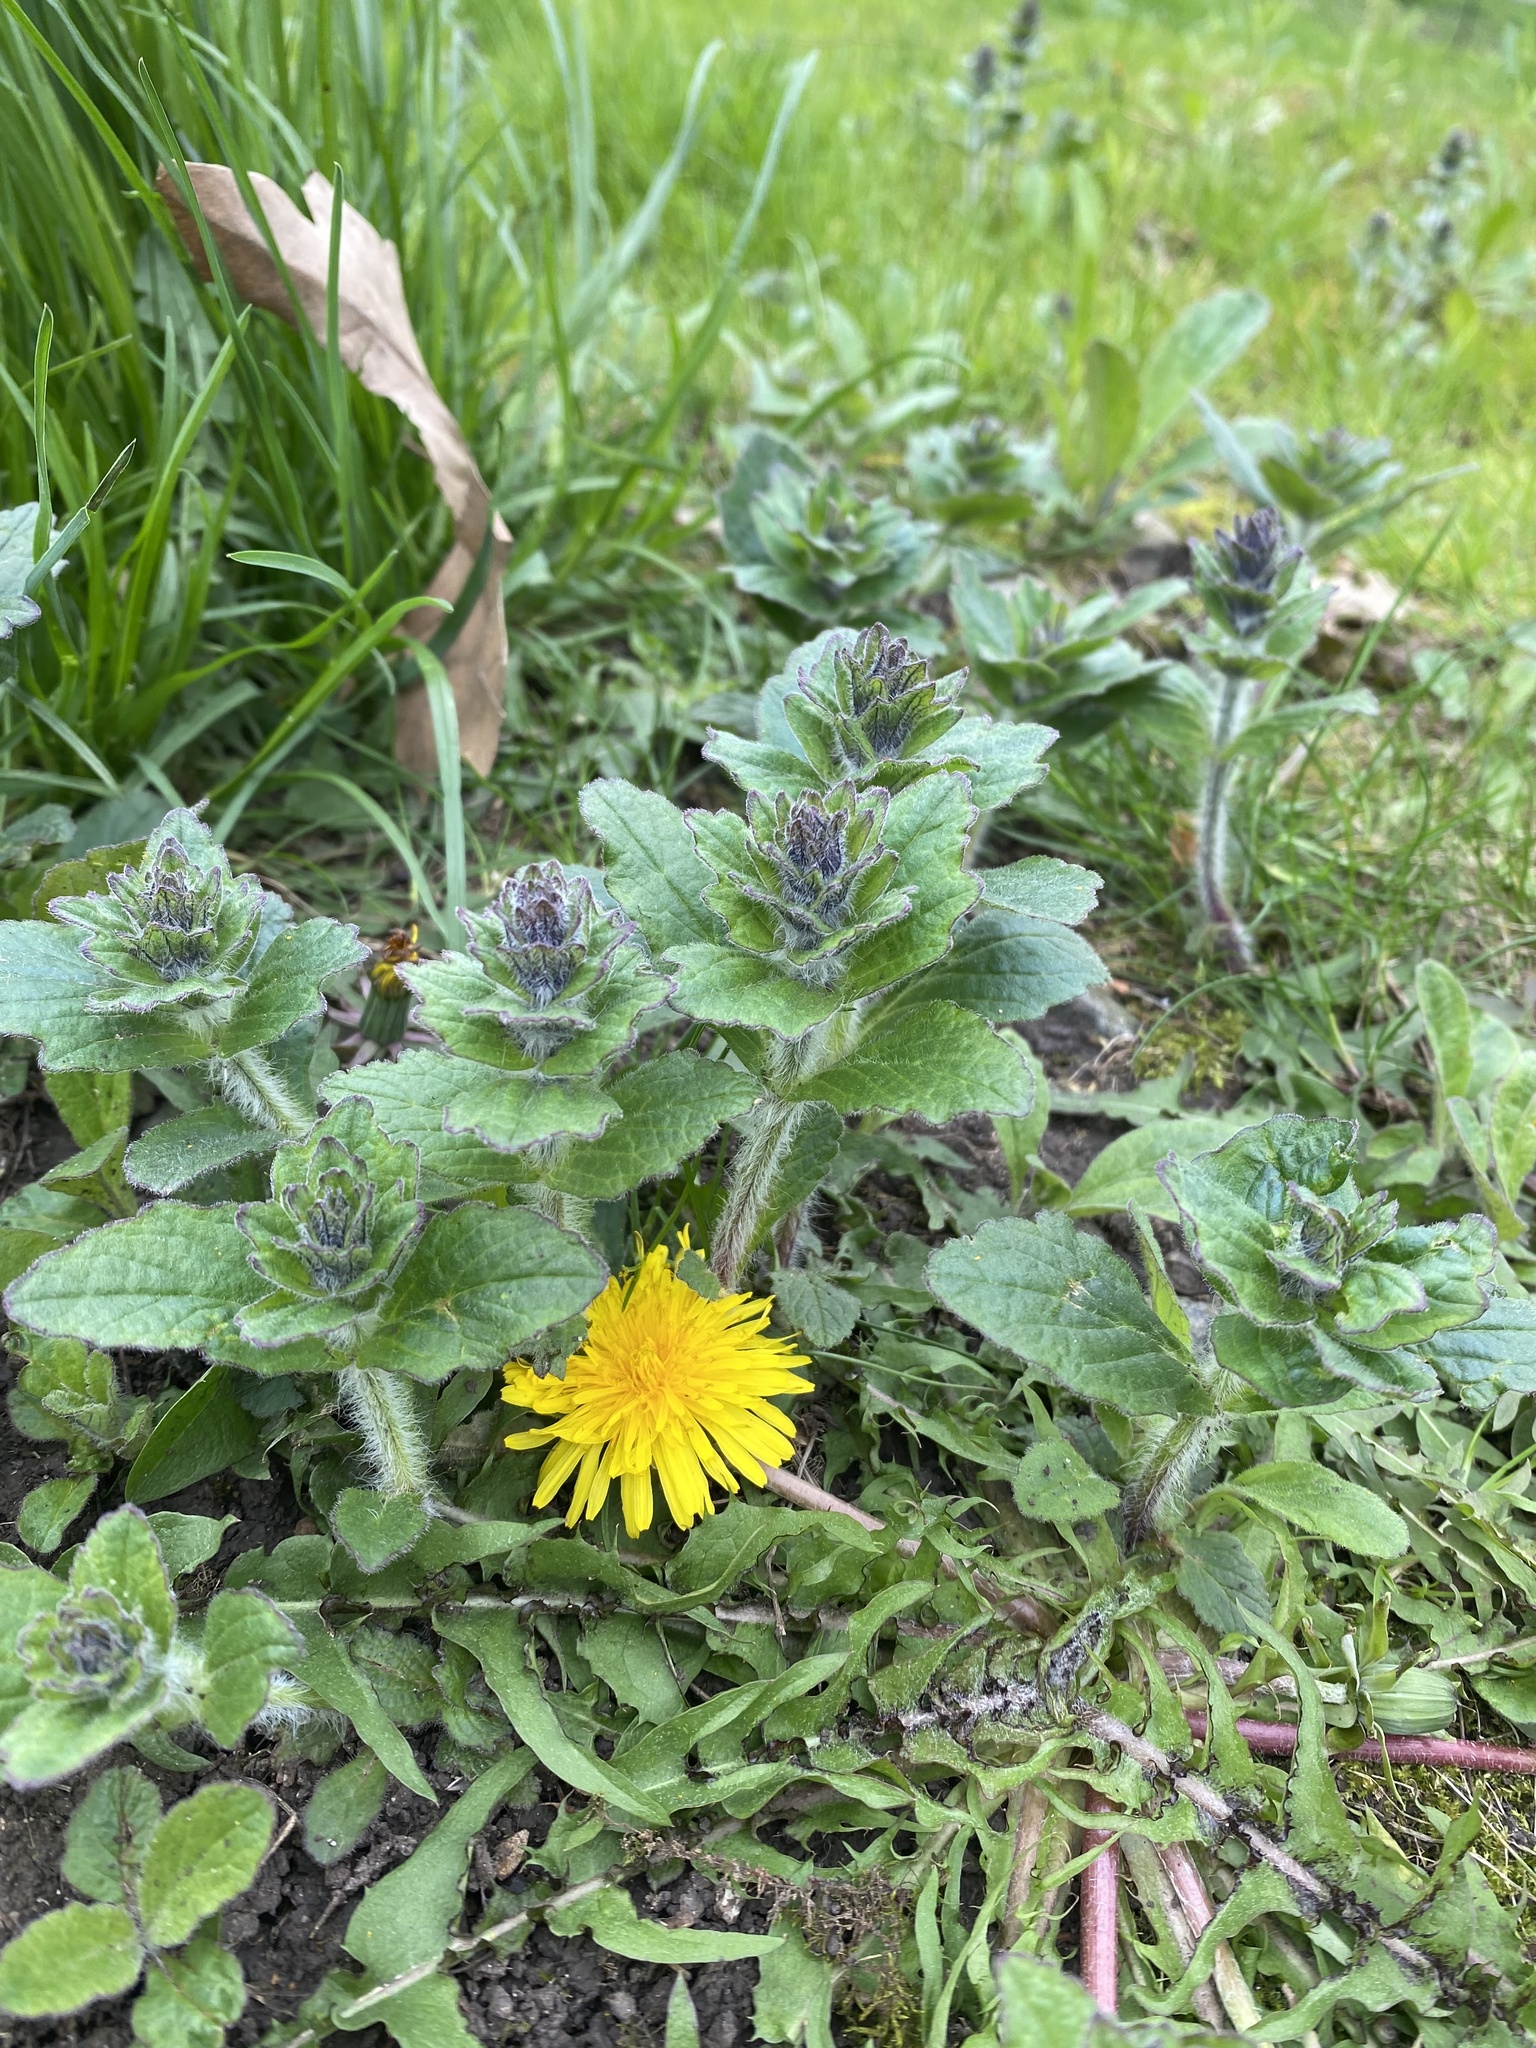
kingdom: Plantae
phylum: Tracheophyta
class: Magnoliopsida
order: Lamiales
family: Lamiaceae
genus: Ajuga
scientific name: Ajuga genevensis
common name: Blue bugle
